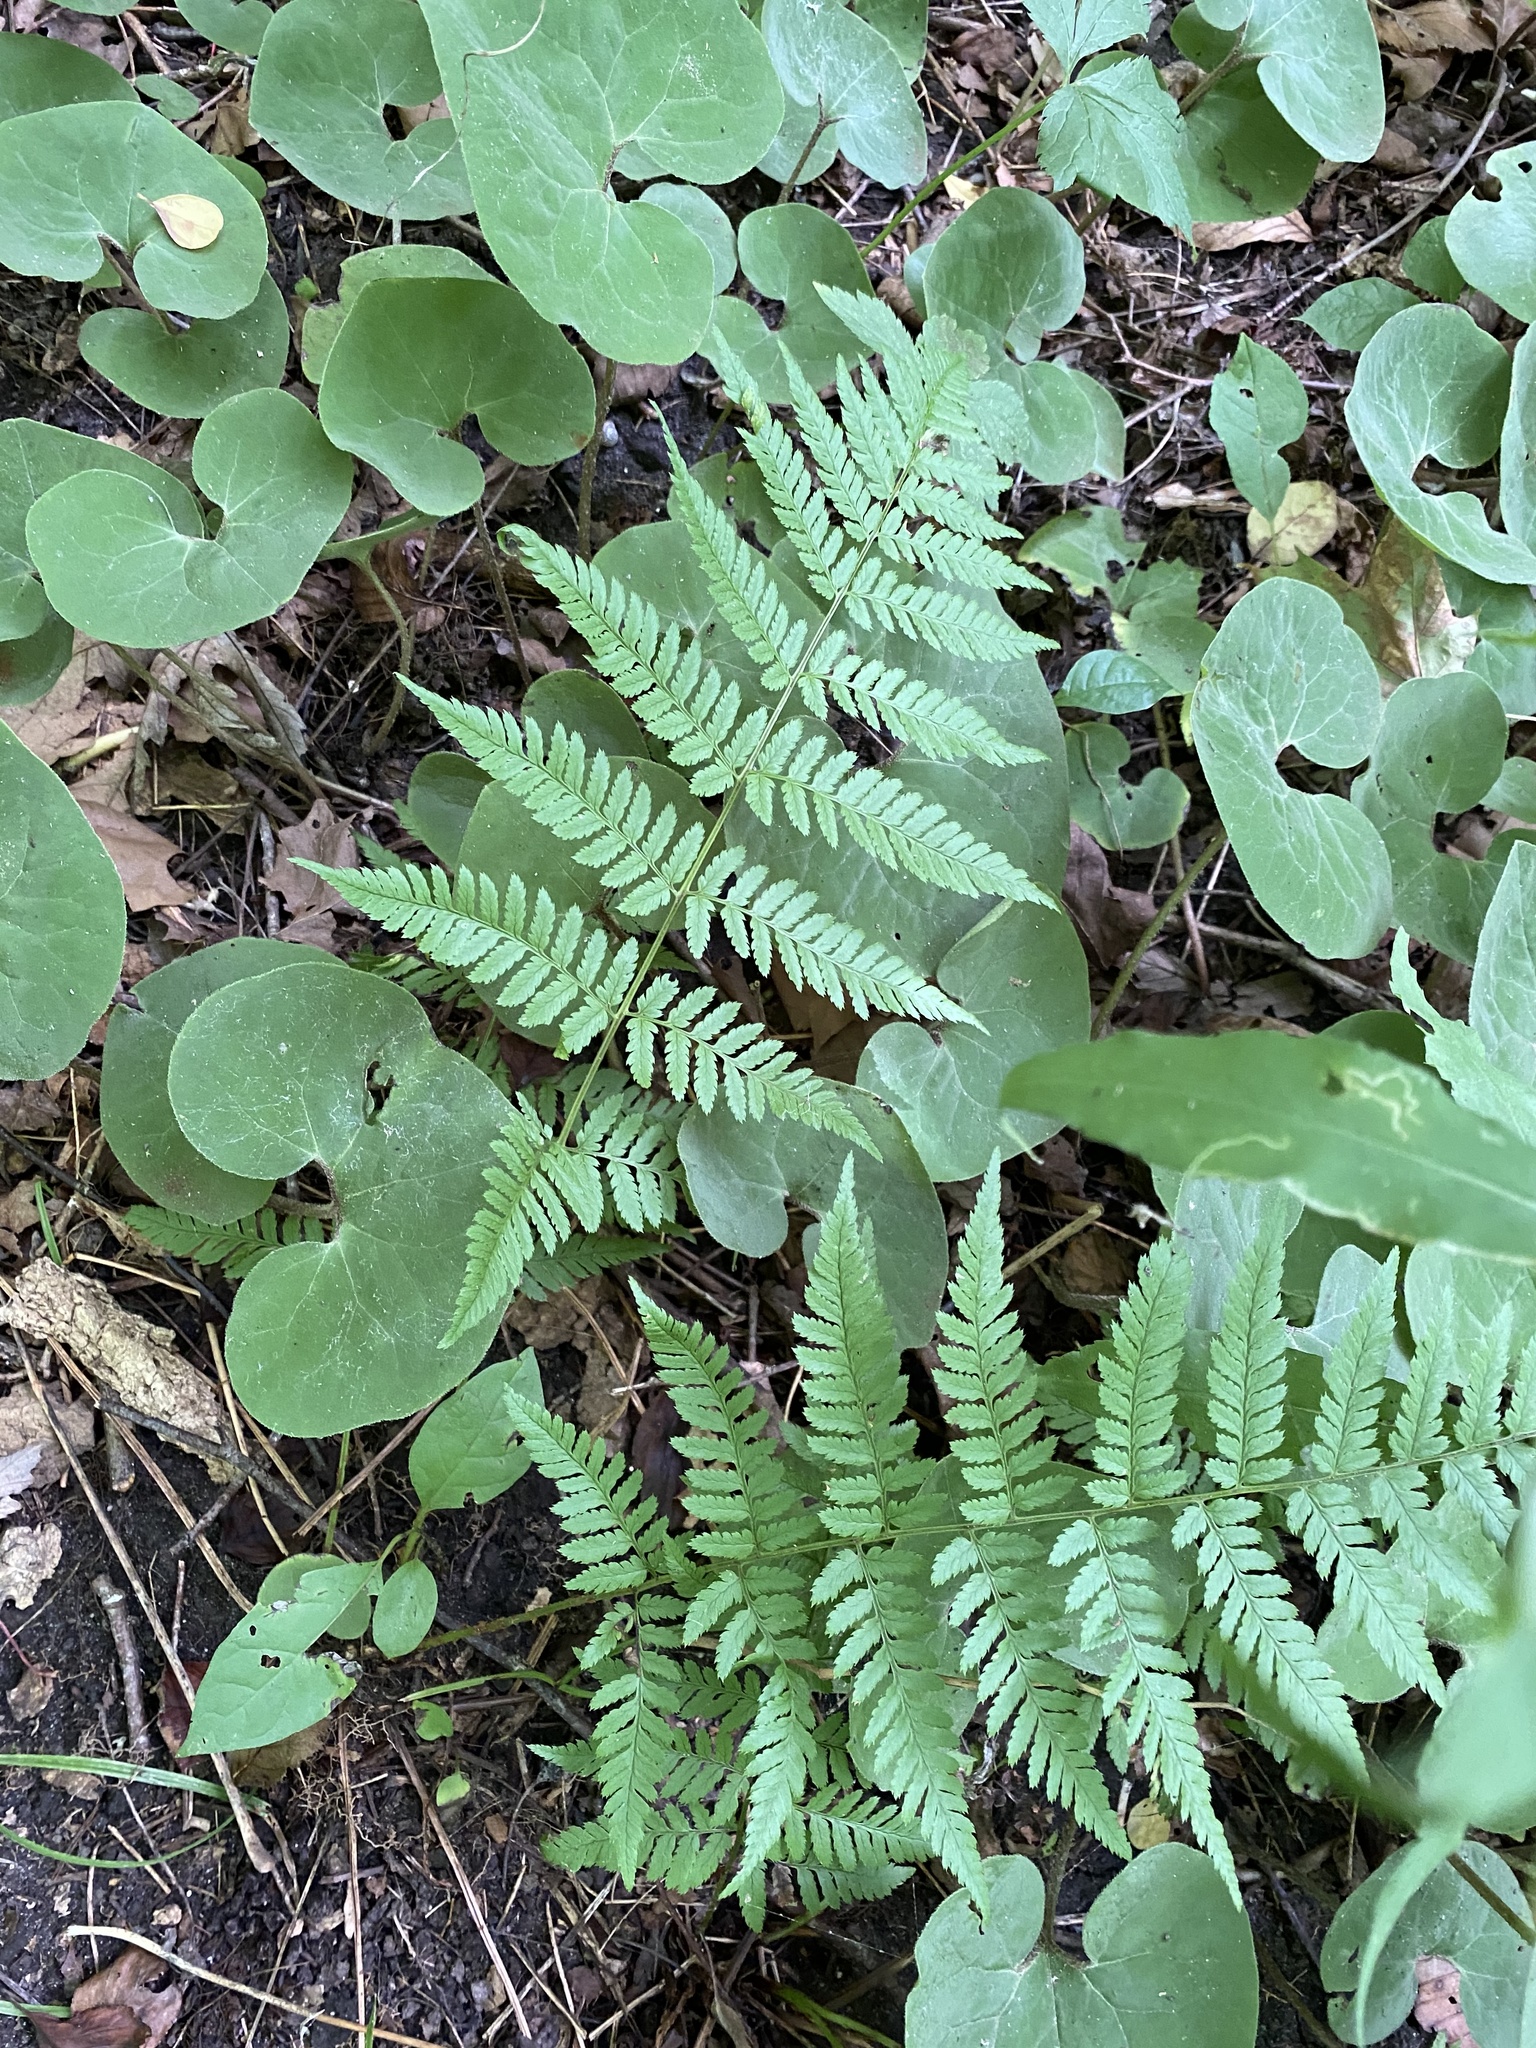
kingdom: Plantae
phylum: Tracheophyta
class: Polypodiopsida
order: Polypodiales
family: Dryopteridaceae
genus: Dryopteris
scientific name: Dryopteris carthusiana
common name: Narrow buckler-fern
